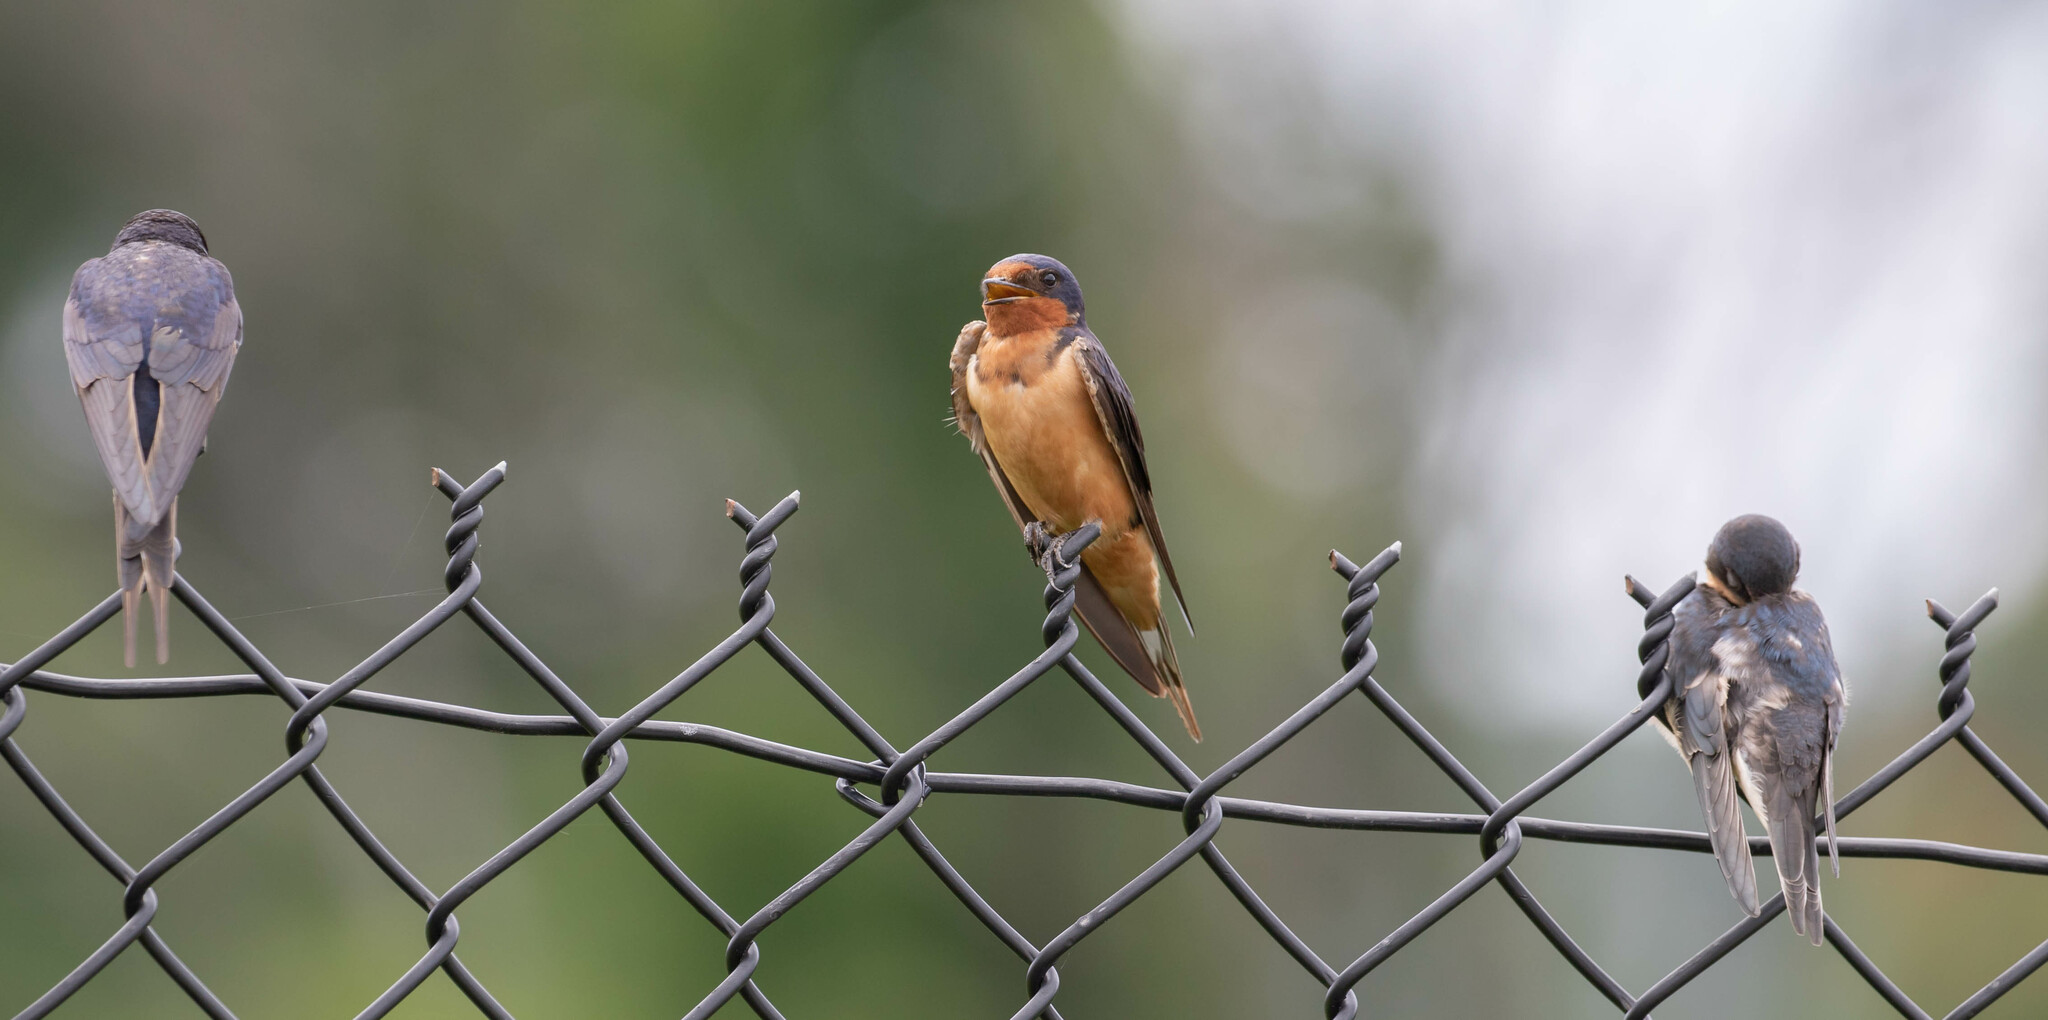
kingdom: Animalia
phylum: Chordata
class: Aves
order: Passeriformes
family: Hirundinidae
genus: Hirundo
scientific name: Hirundo rustica
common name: Barn swallow
